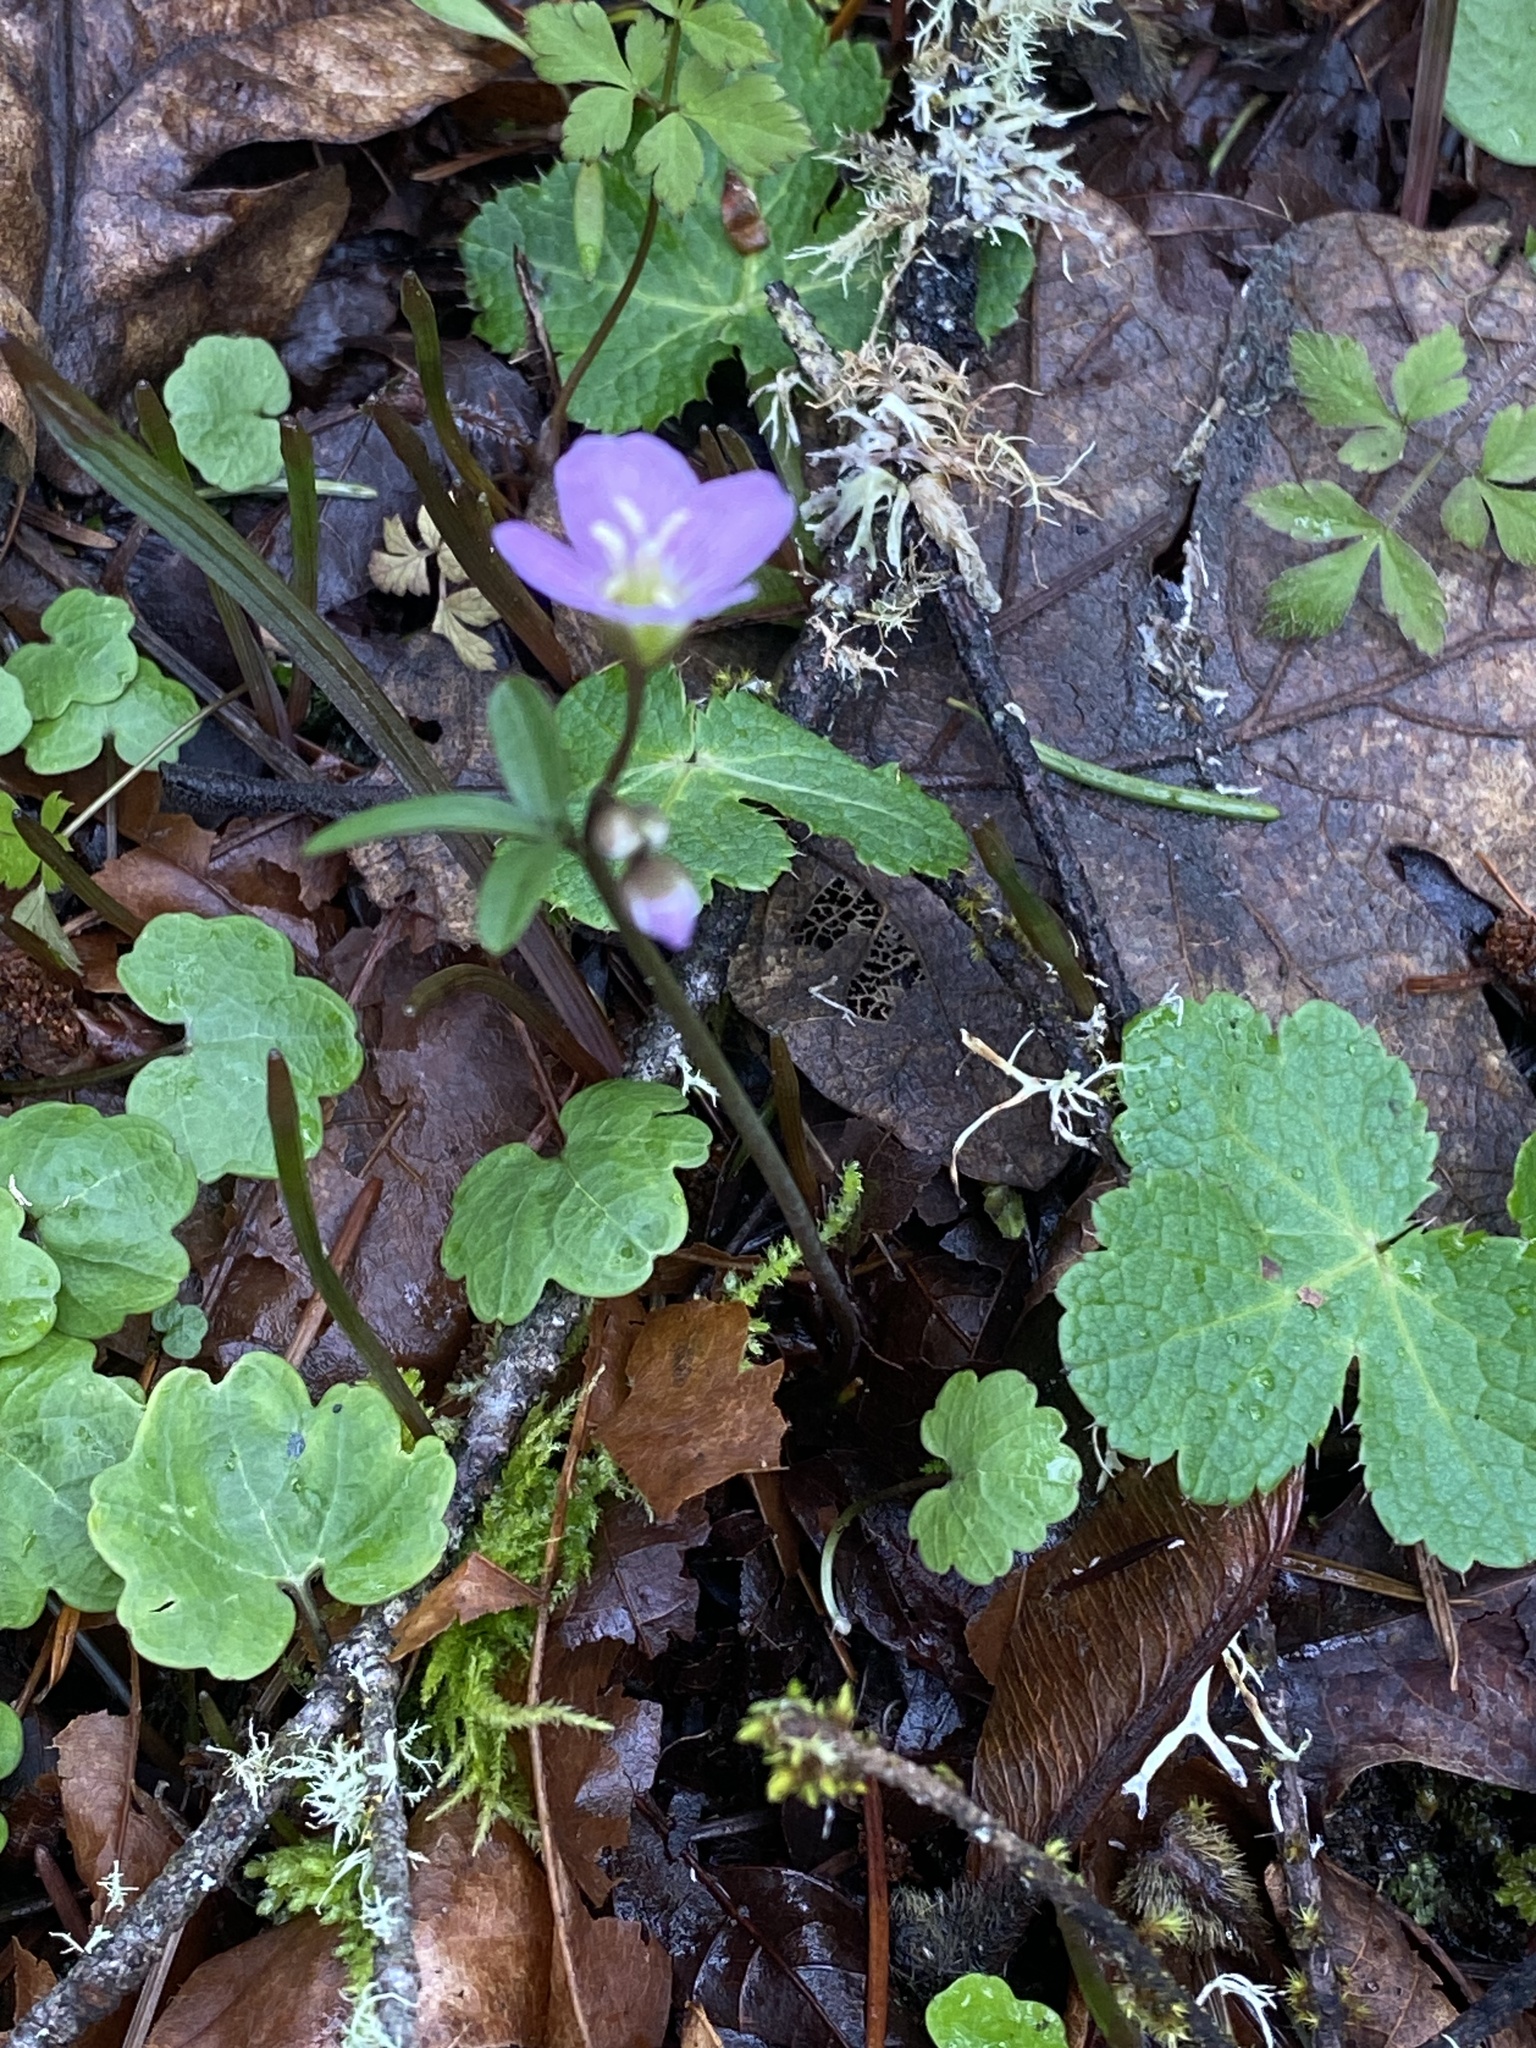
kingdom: Plantae
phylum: Tracheophyta
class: Magnoliopsida
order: Brassicales
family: Brassicaceae
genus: Cardamine
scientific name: Cardamine nuttallii
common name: Nuttall's toothwort
